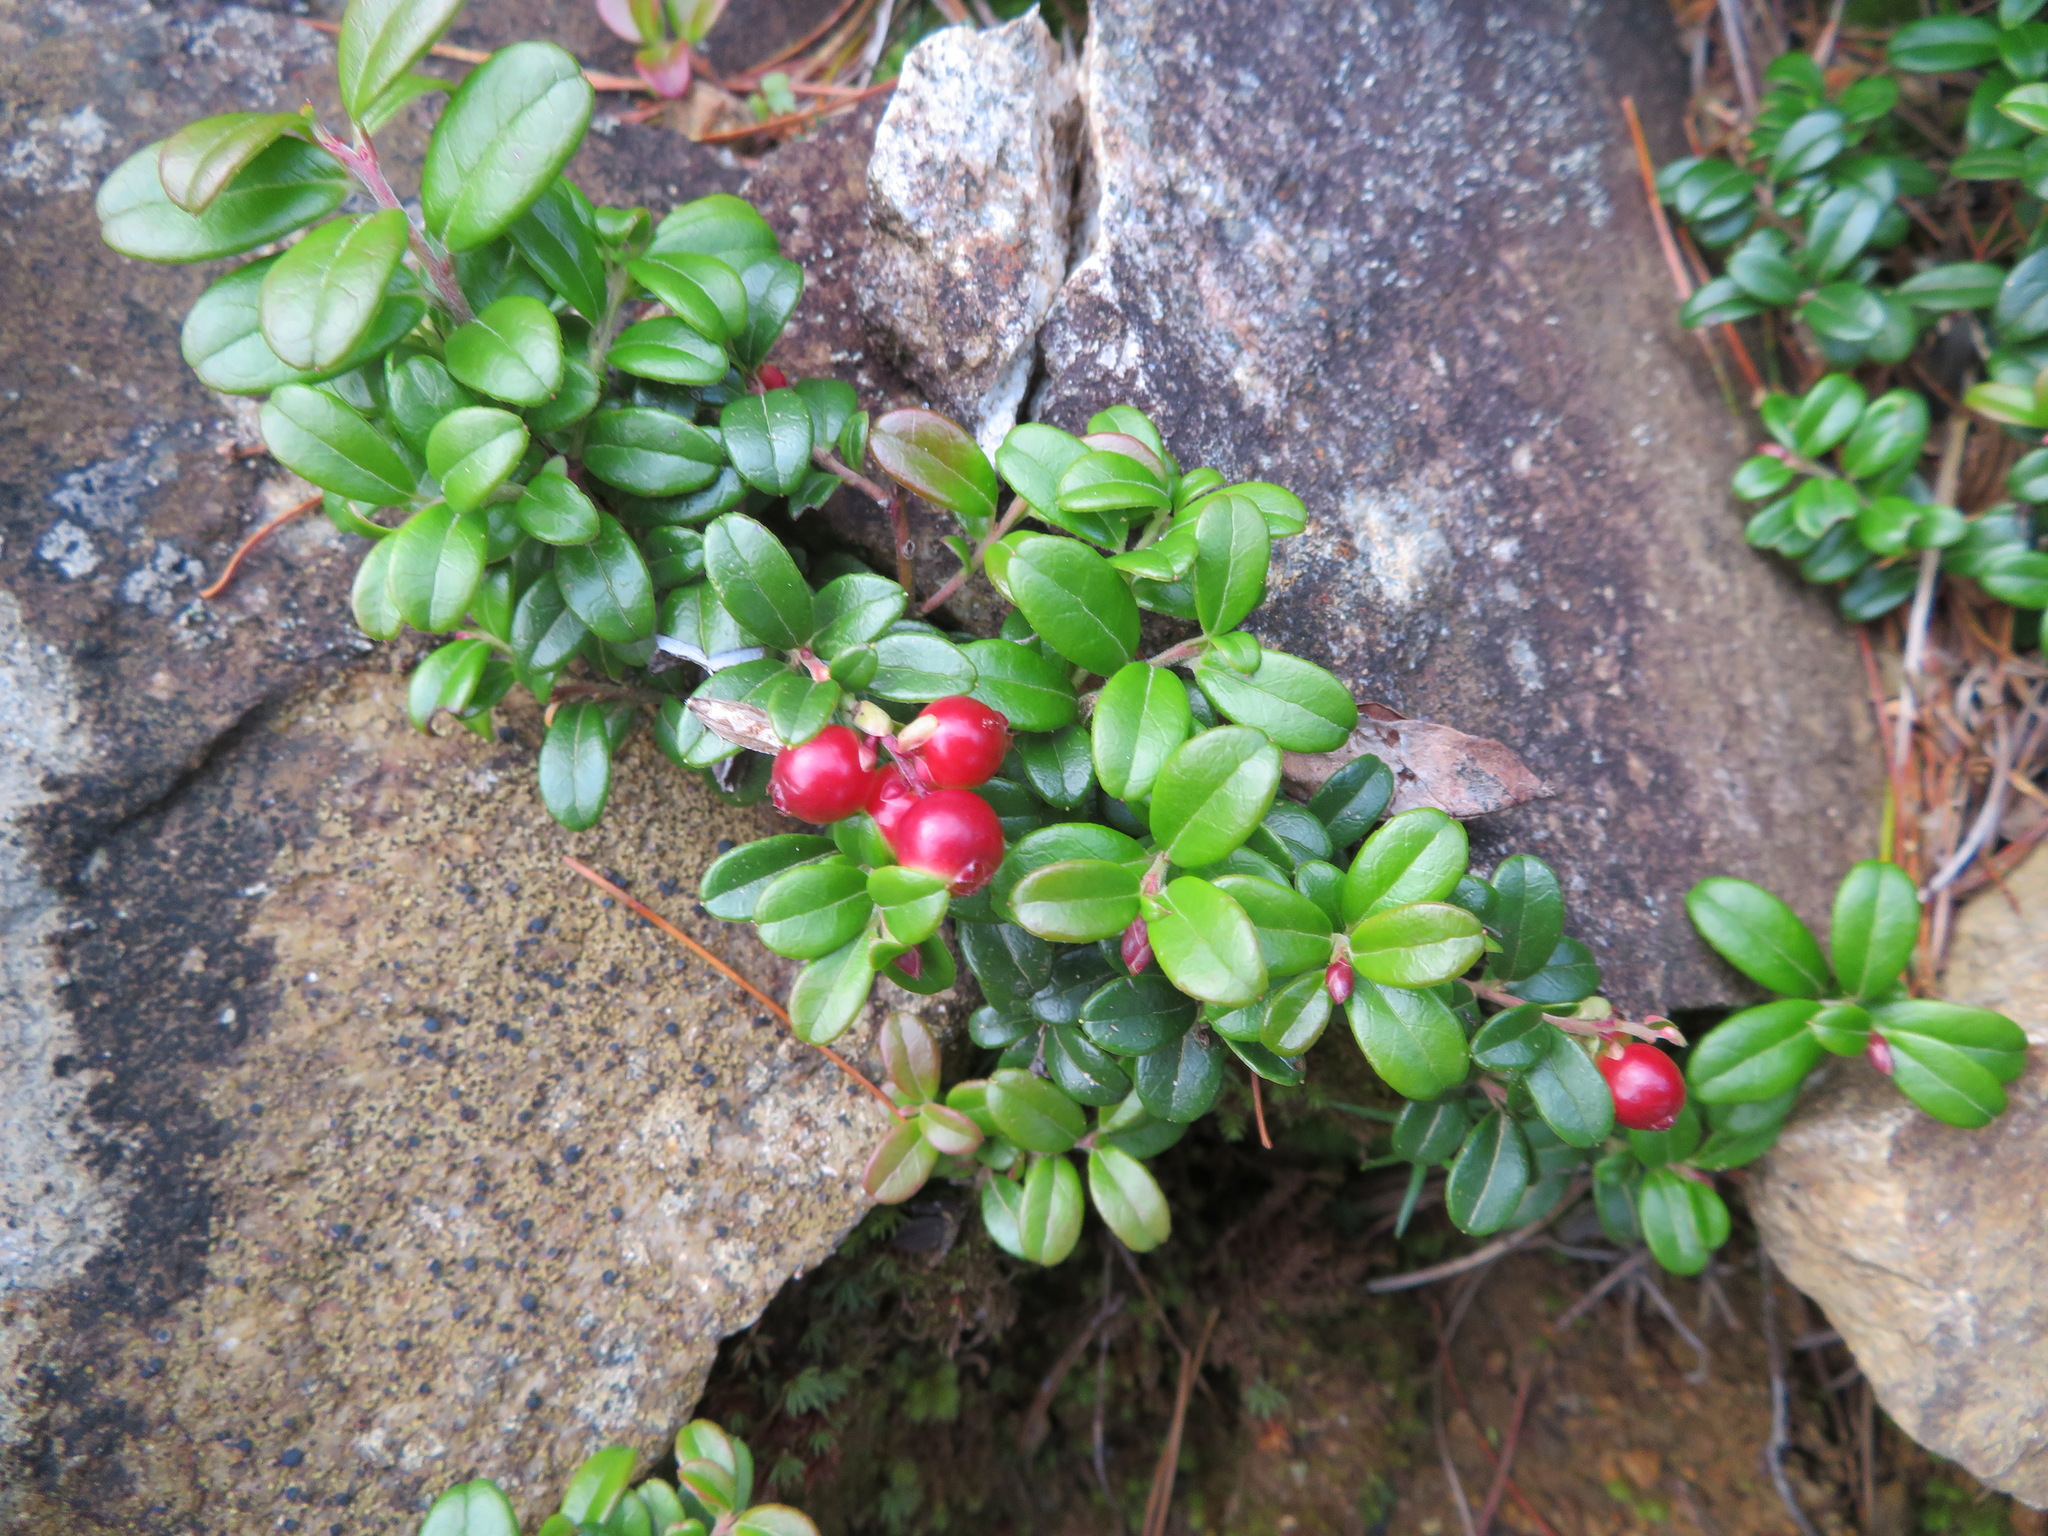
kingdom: Plantae
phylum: Tracheophyta
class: Magnoliopsida
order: Ericales
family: Ericaceae
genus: Vaccinium
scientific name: Vaccinium vitis-idaea
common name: Cowberry
